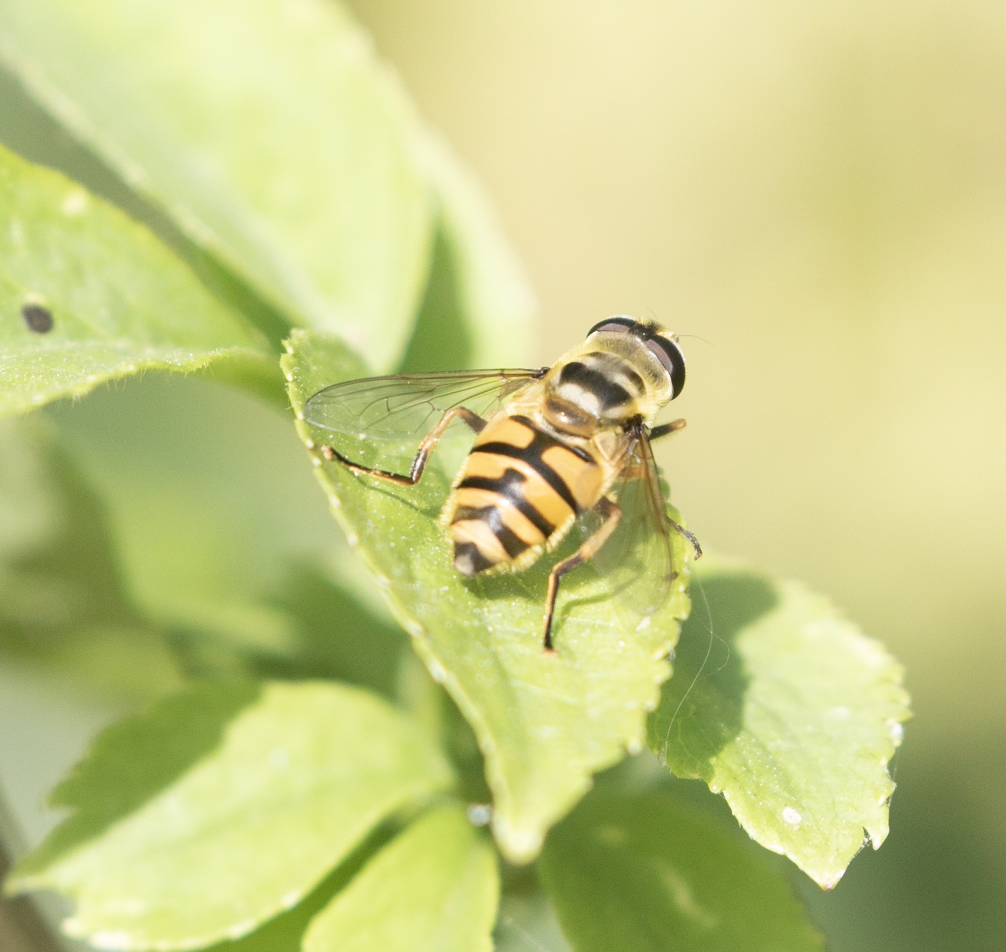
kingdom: Animalia
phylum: Arthropoda
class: Insecta
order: Diptera
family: Syrphidae
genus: Myathropa
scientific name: Myathropa florea
